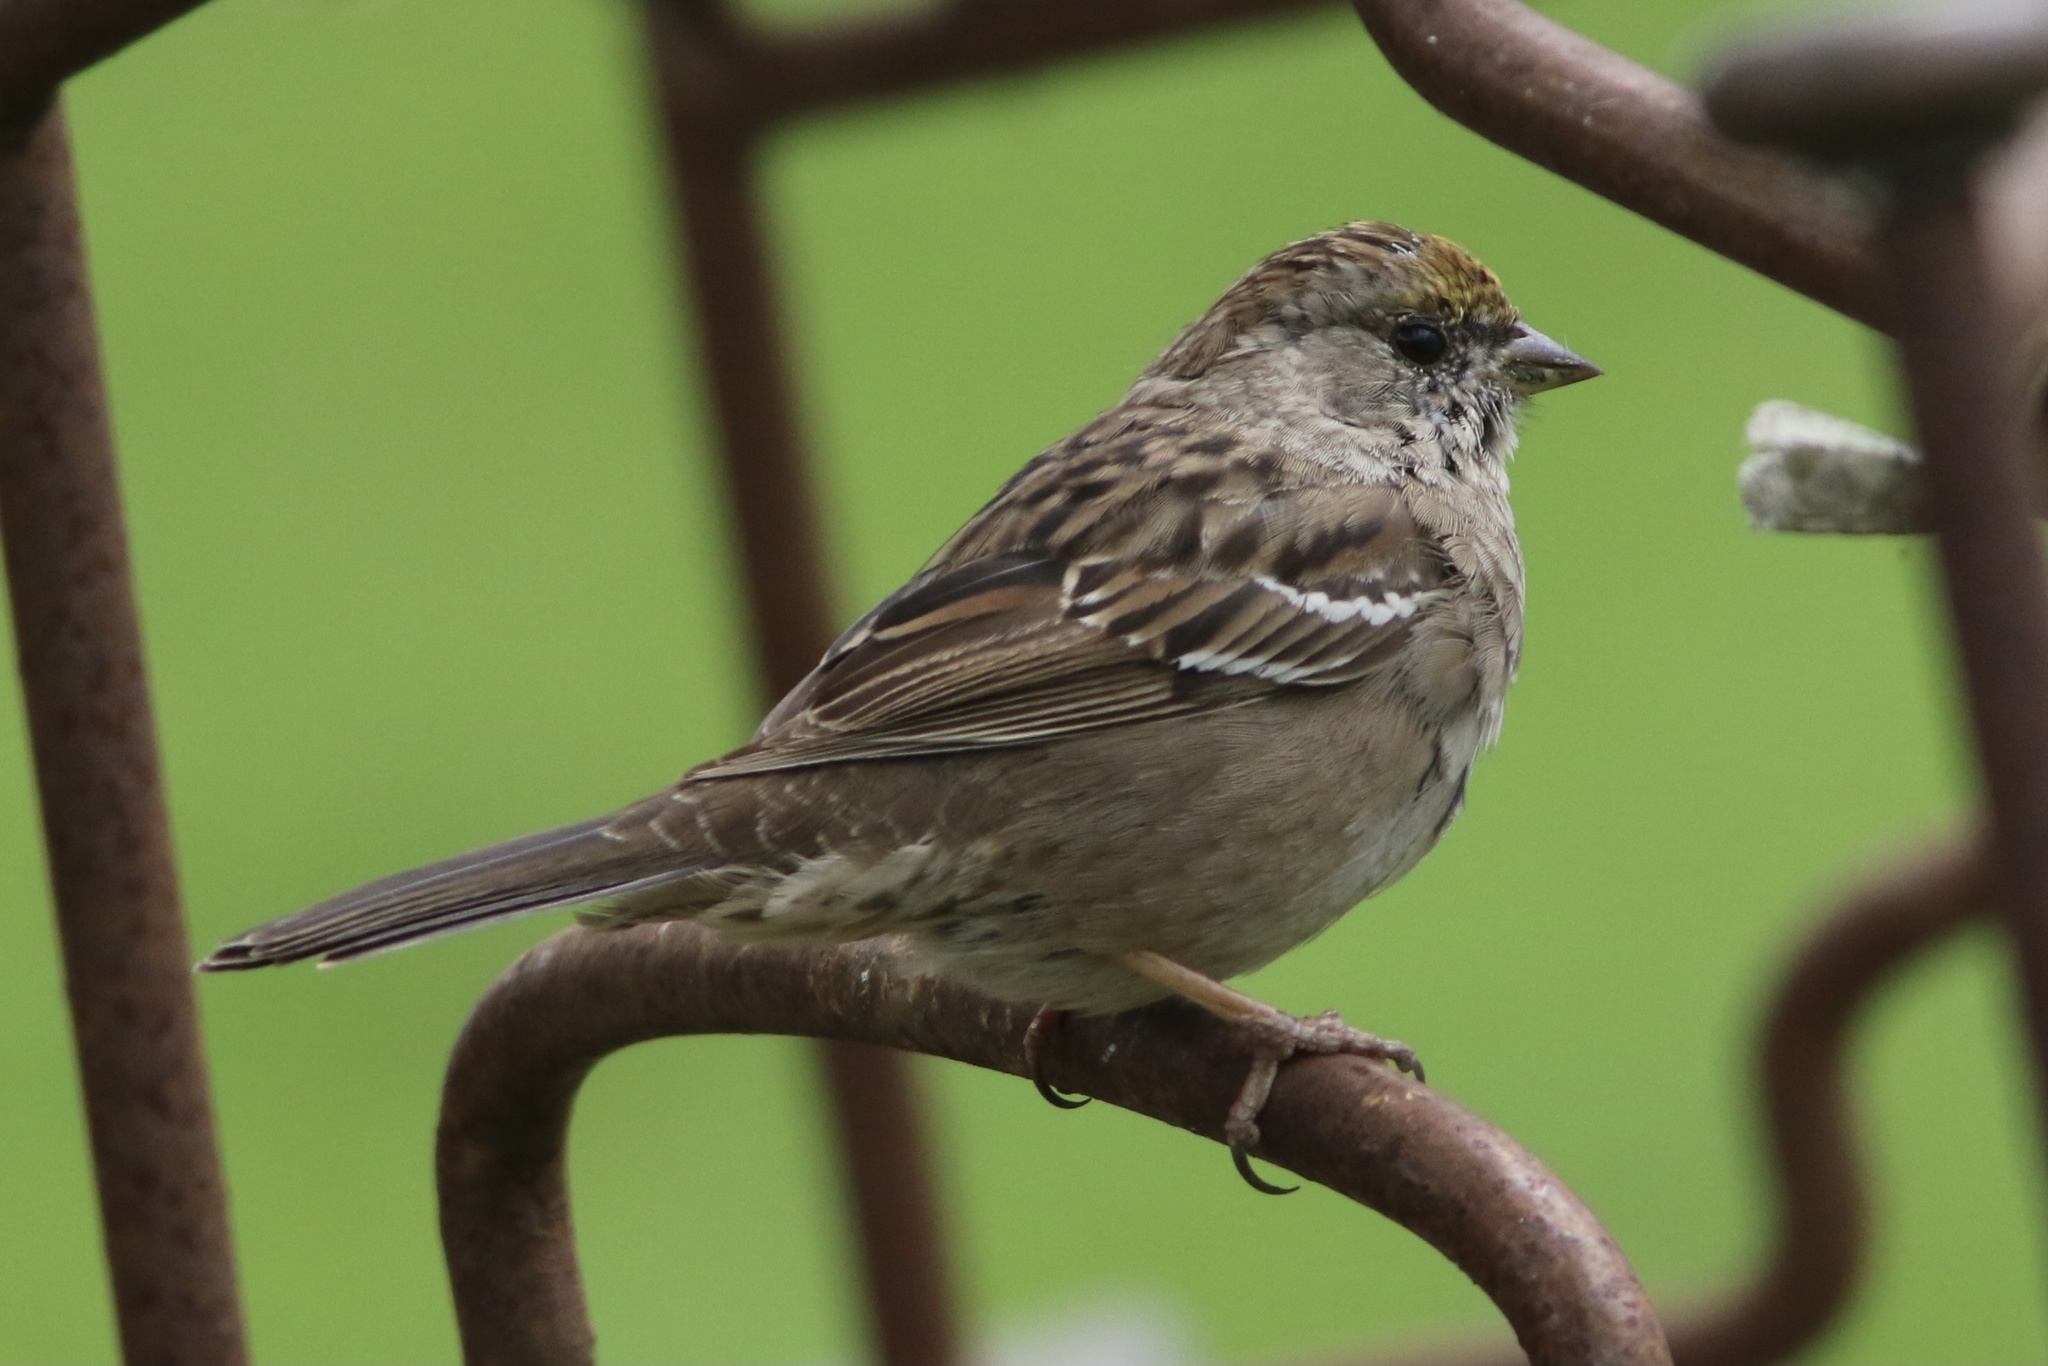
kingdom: Animalia
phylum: Chordata
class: Aves
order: Passeriformes
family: Passerellidae
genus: Zonotrichia
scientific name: Zonotrichia atricapilla
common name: Golden-crowned sparrow
